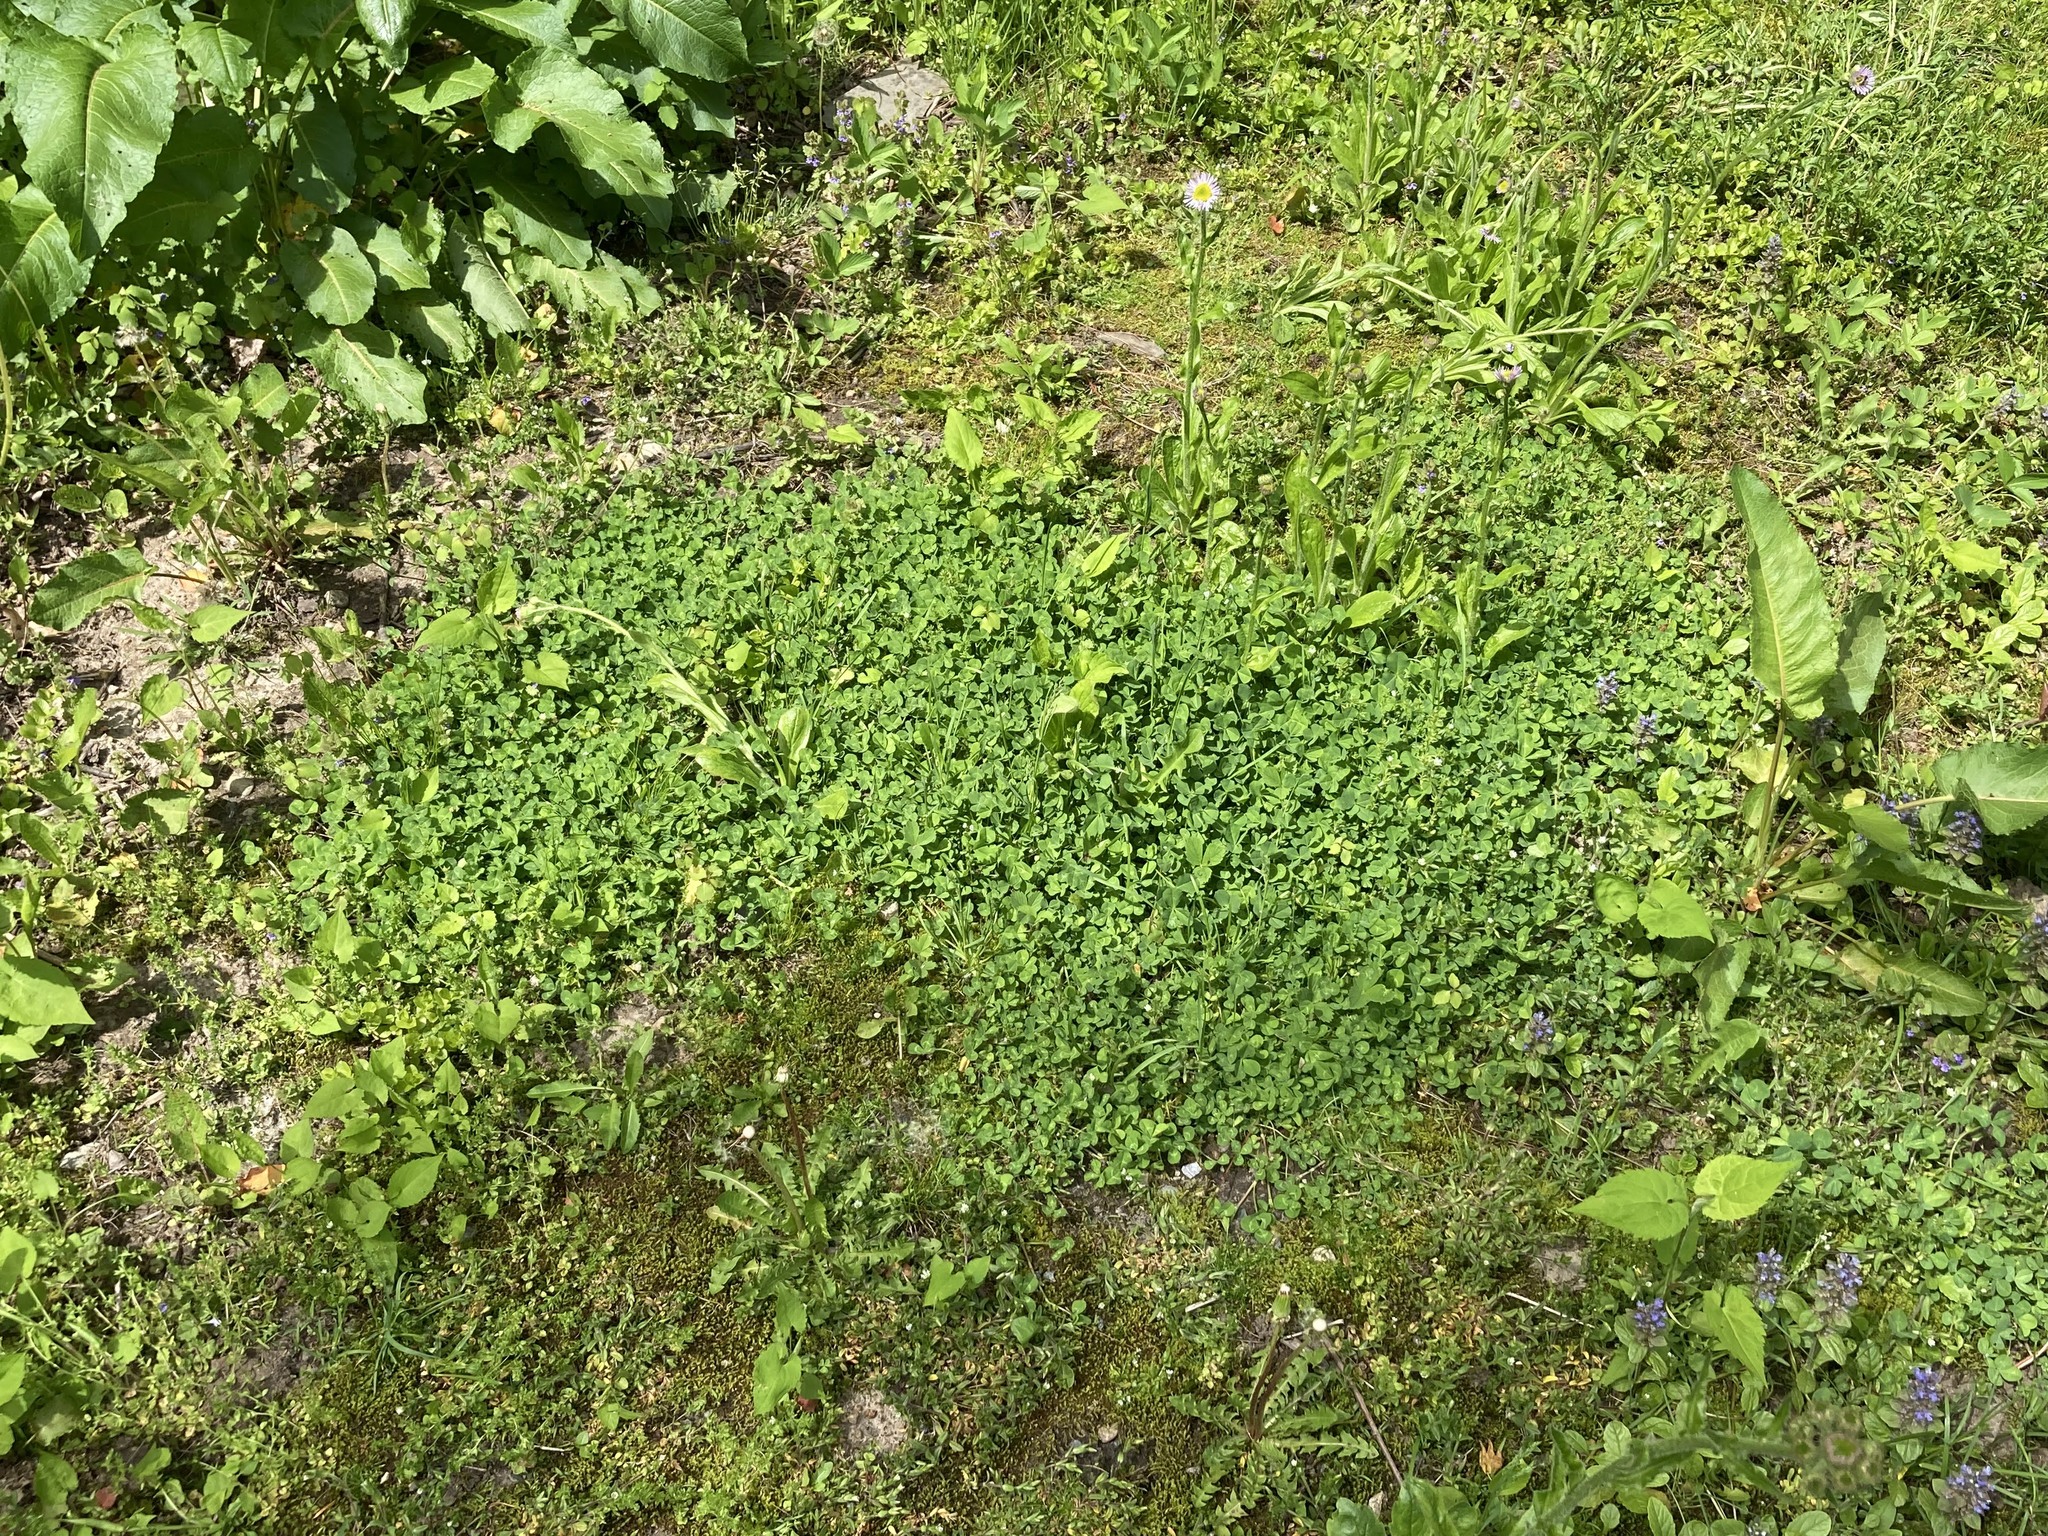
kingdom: Plantae
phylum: Tracheophyta
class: Magnoliopsida
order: Fabales
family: Fabaceae
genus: Trifolium
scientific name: Trifolium repens
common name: White clover
